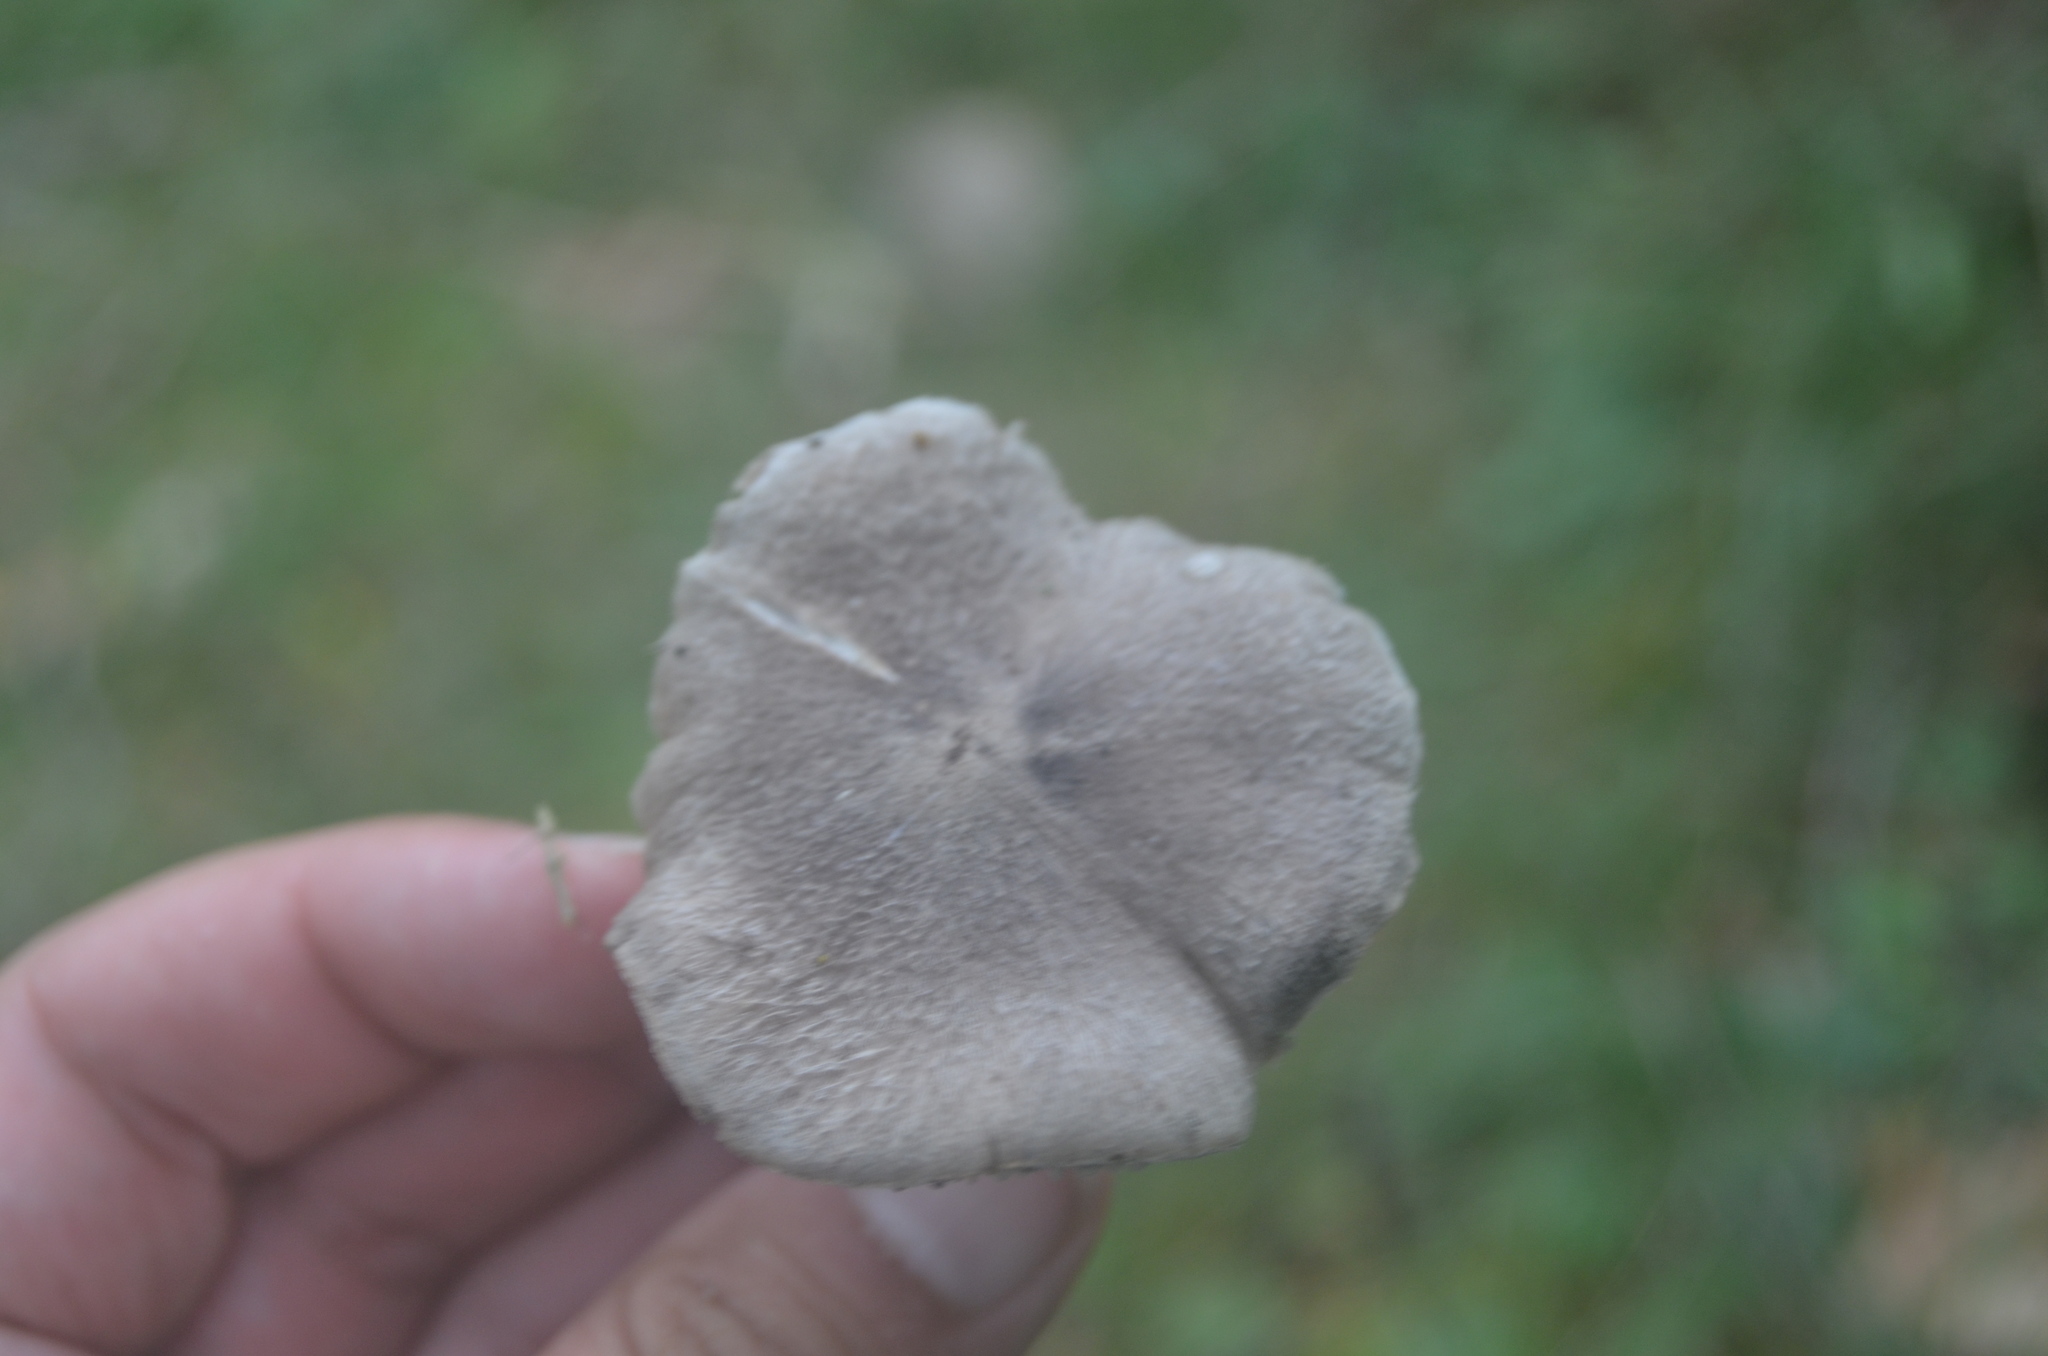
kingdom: Fungi
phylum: Basidiomycota
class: Agaricomycetes
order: Agaricales
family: Tricholomataceae
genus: Tricholoma
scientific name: Tricholoma terreum
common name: Grey knight
